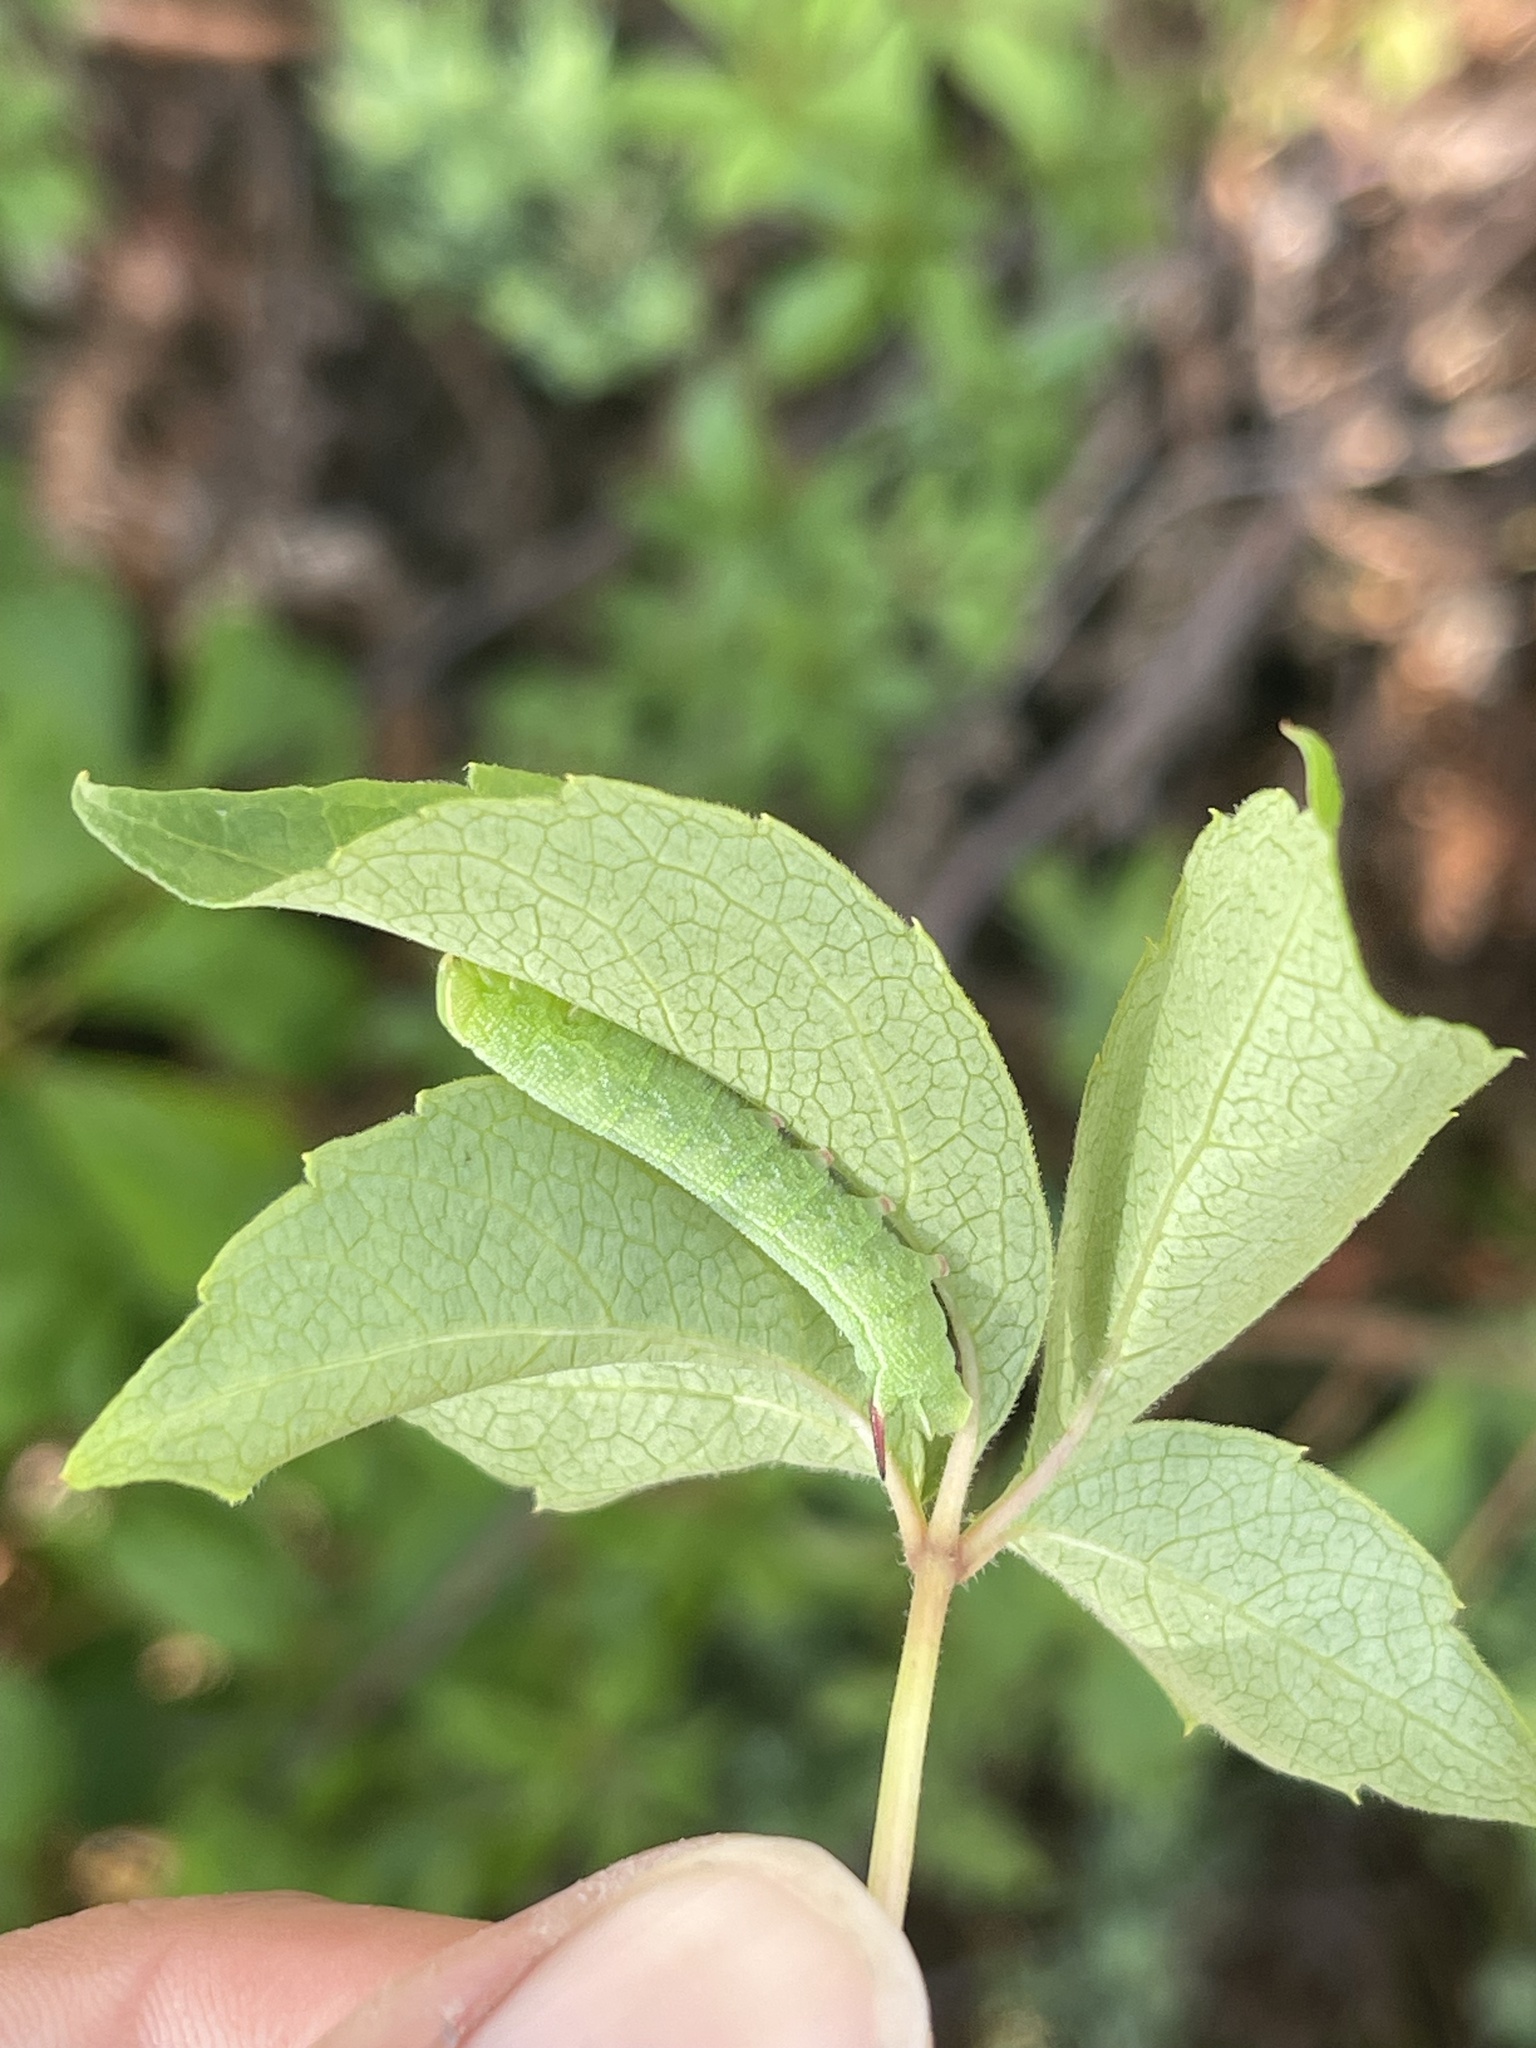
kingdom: Animalia
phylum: Arthropoda
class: Insecta
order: Lepidoptera
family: Sphingidae
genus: Amphion
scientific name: Amphion floridensis
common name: Nessus sphinx
